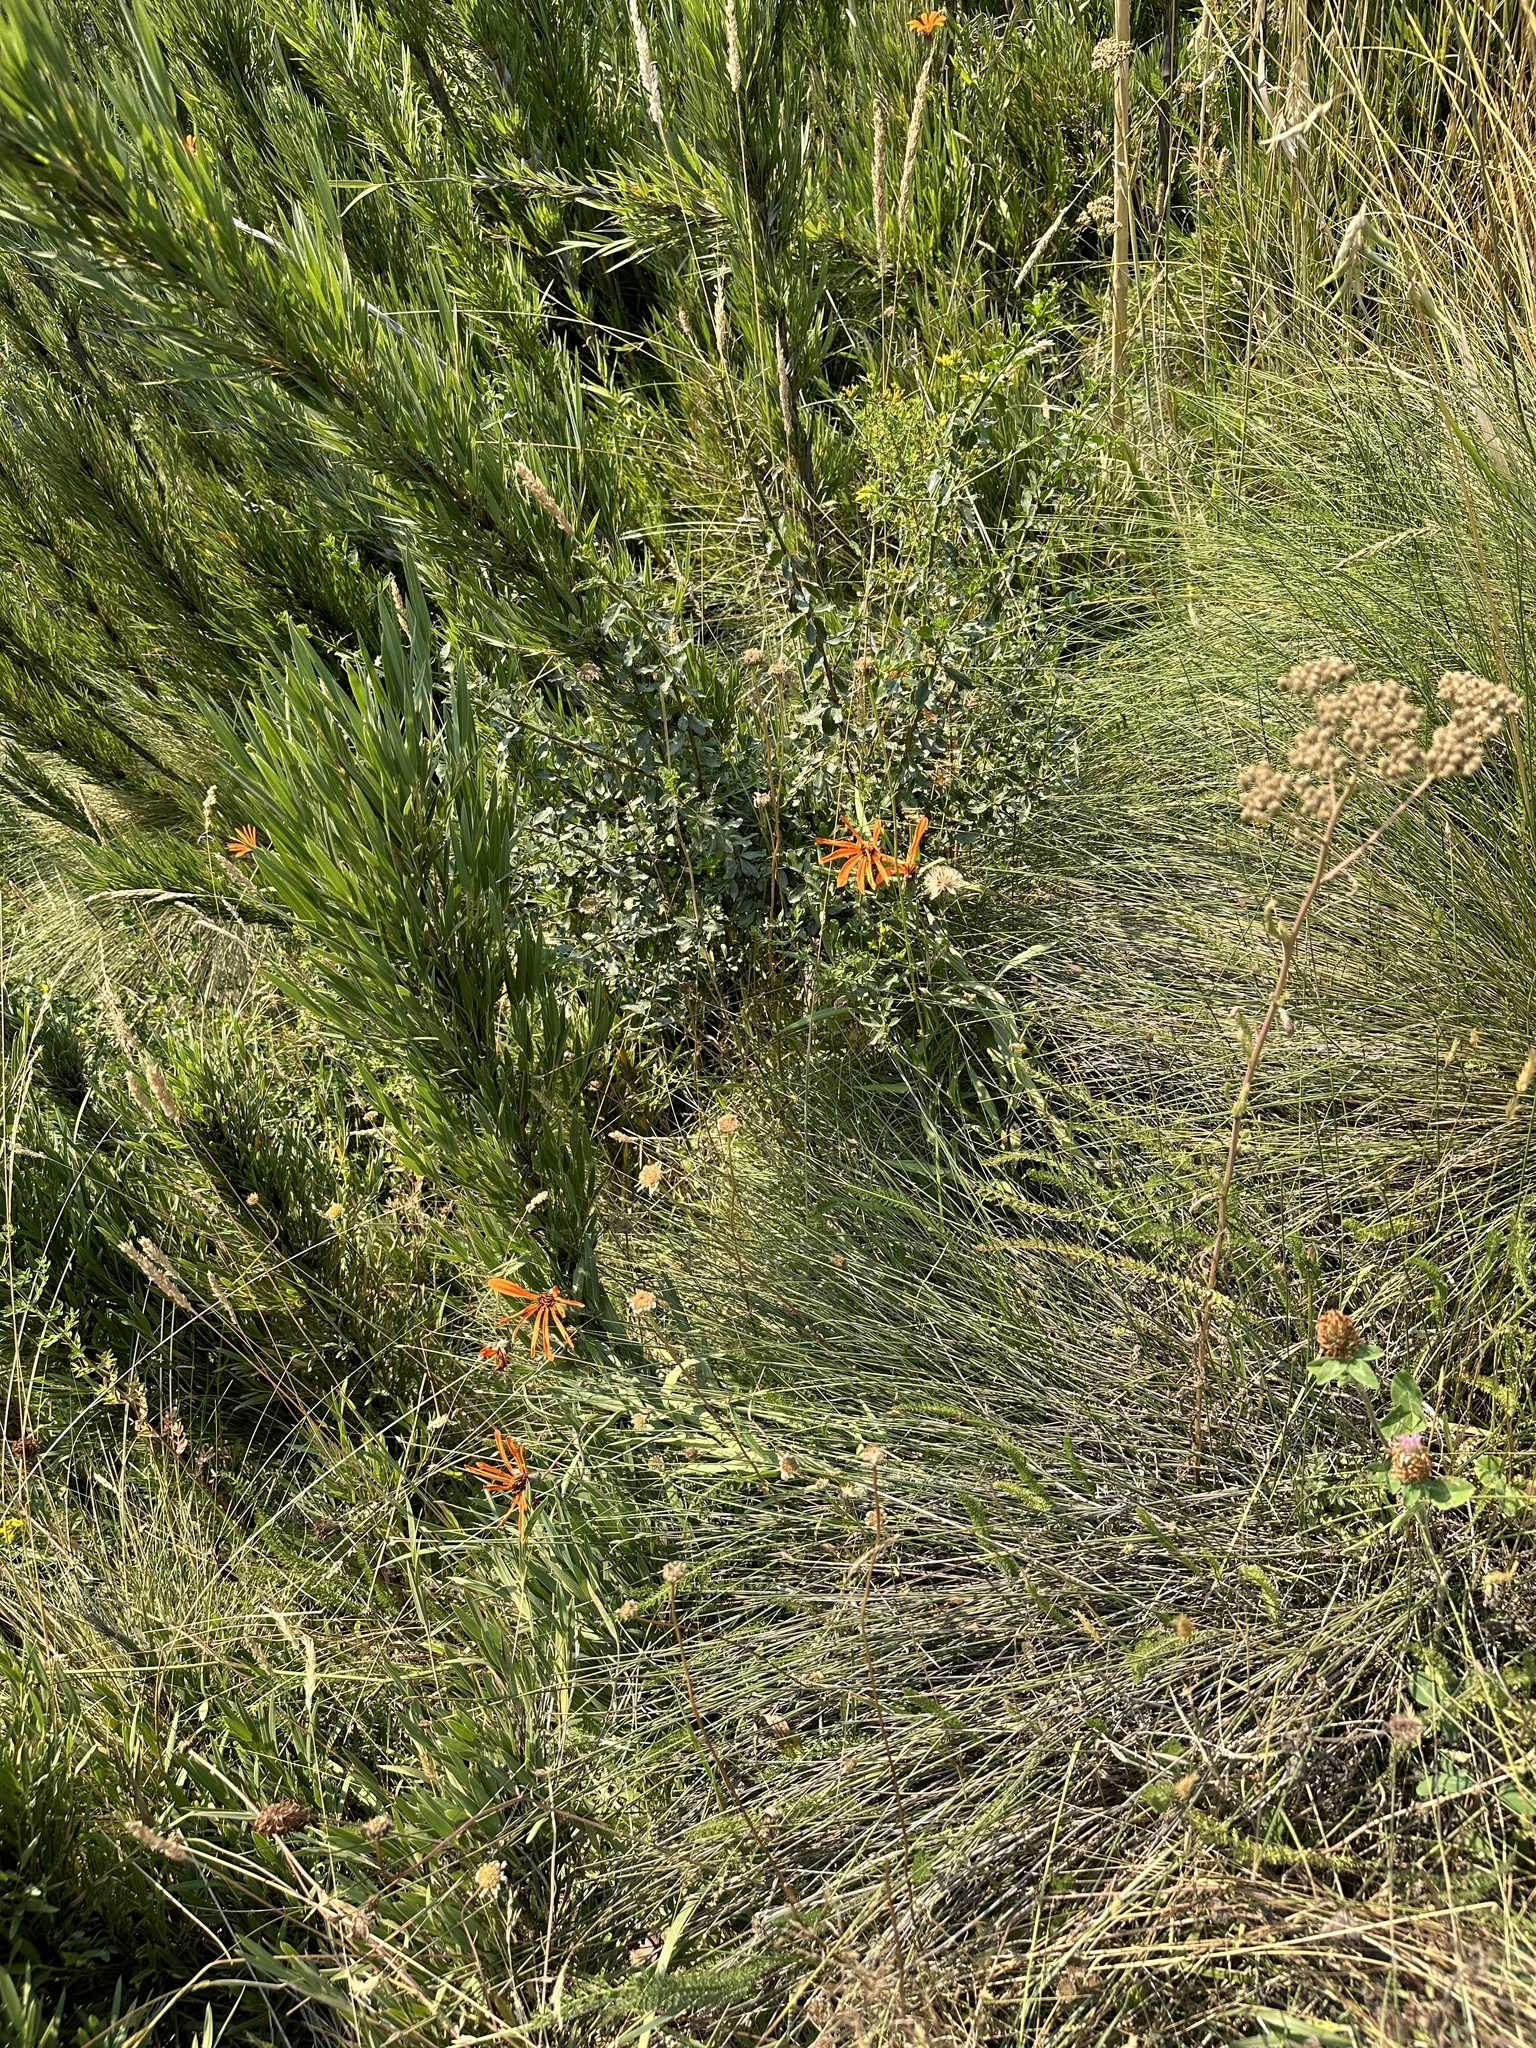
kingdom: Plantae
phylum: Tracheophyta
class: Magnoliopsida
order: Asterales
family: Asteraceae
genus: Mutisia
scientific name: Mutisia decurrens
